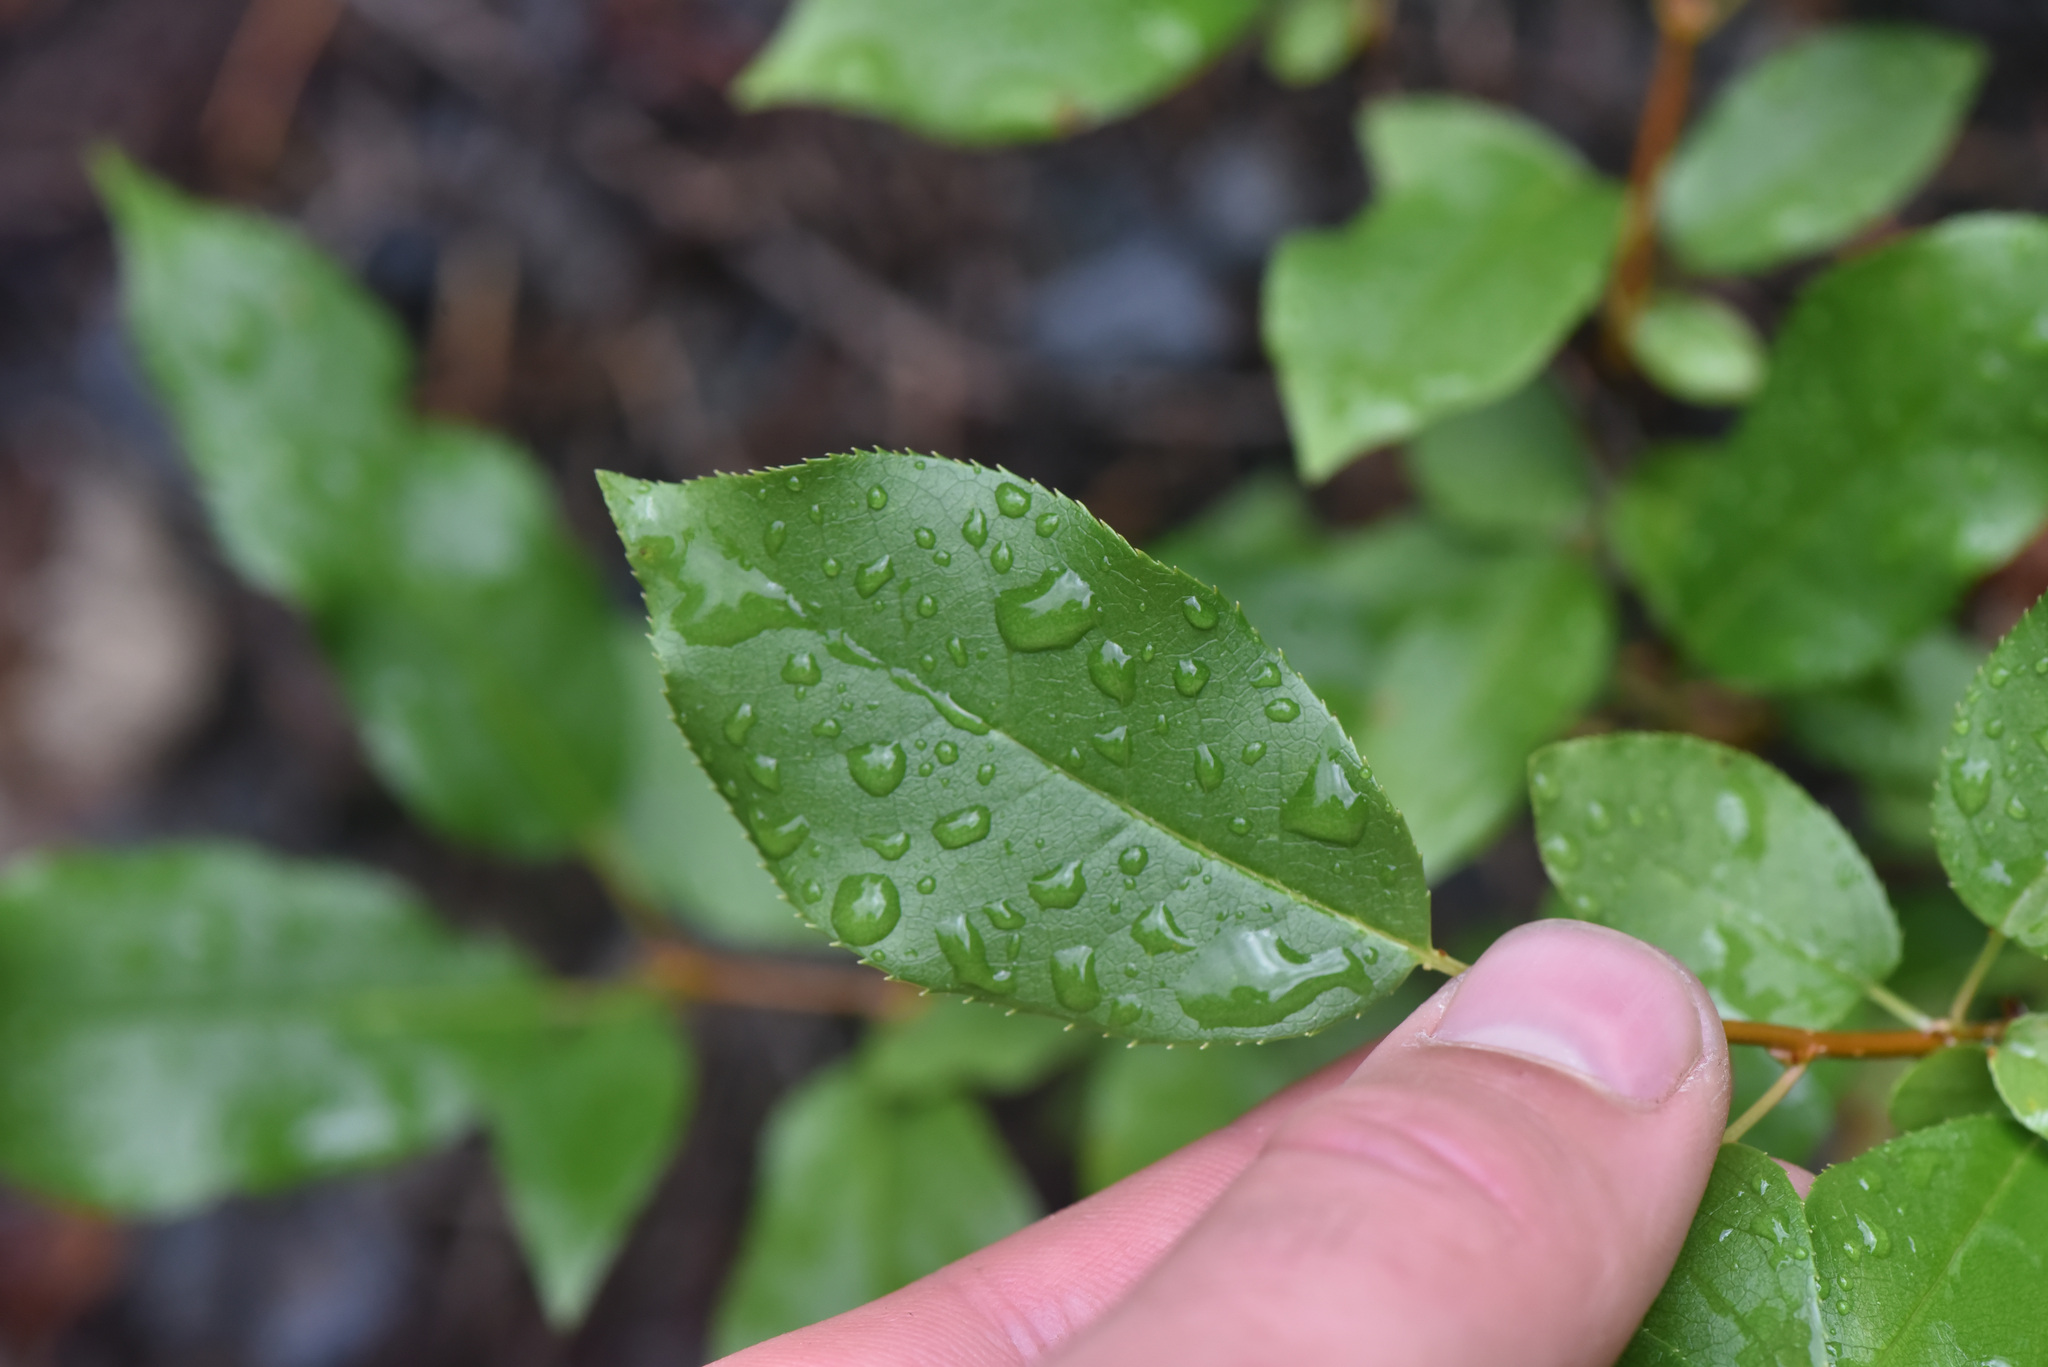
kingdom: Plantae
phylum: Tracheophyta
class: Magnoliopsida
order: Ericales
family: Ericaceae
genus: Vaccinium
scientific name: Vaccinium membranaceum
